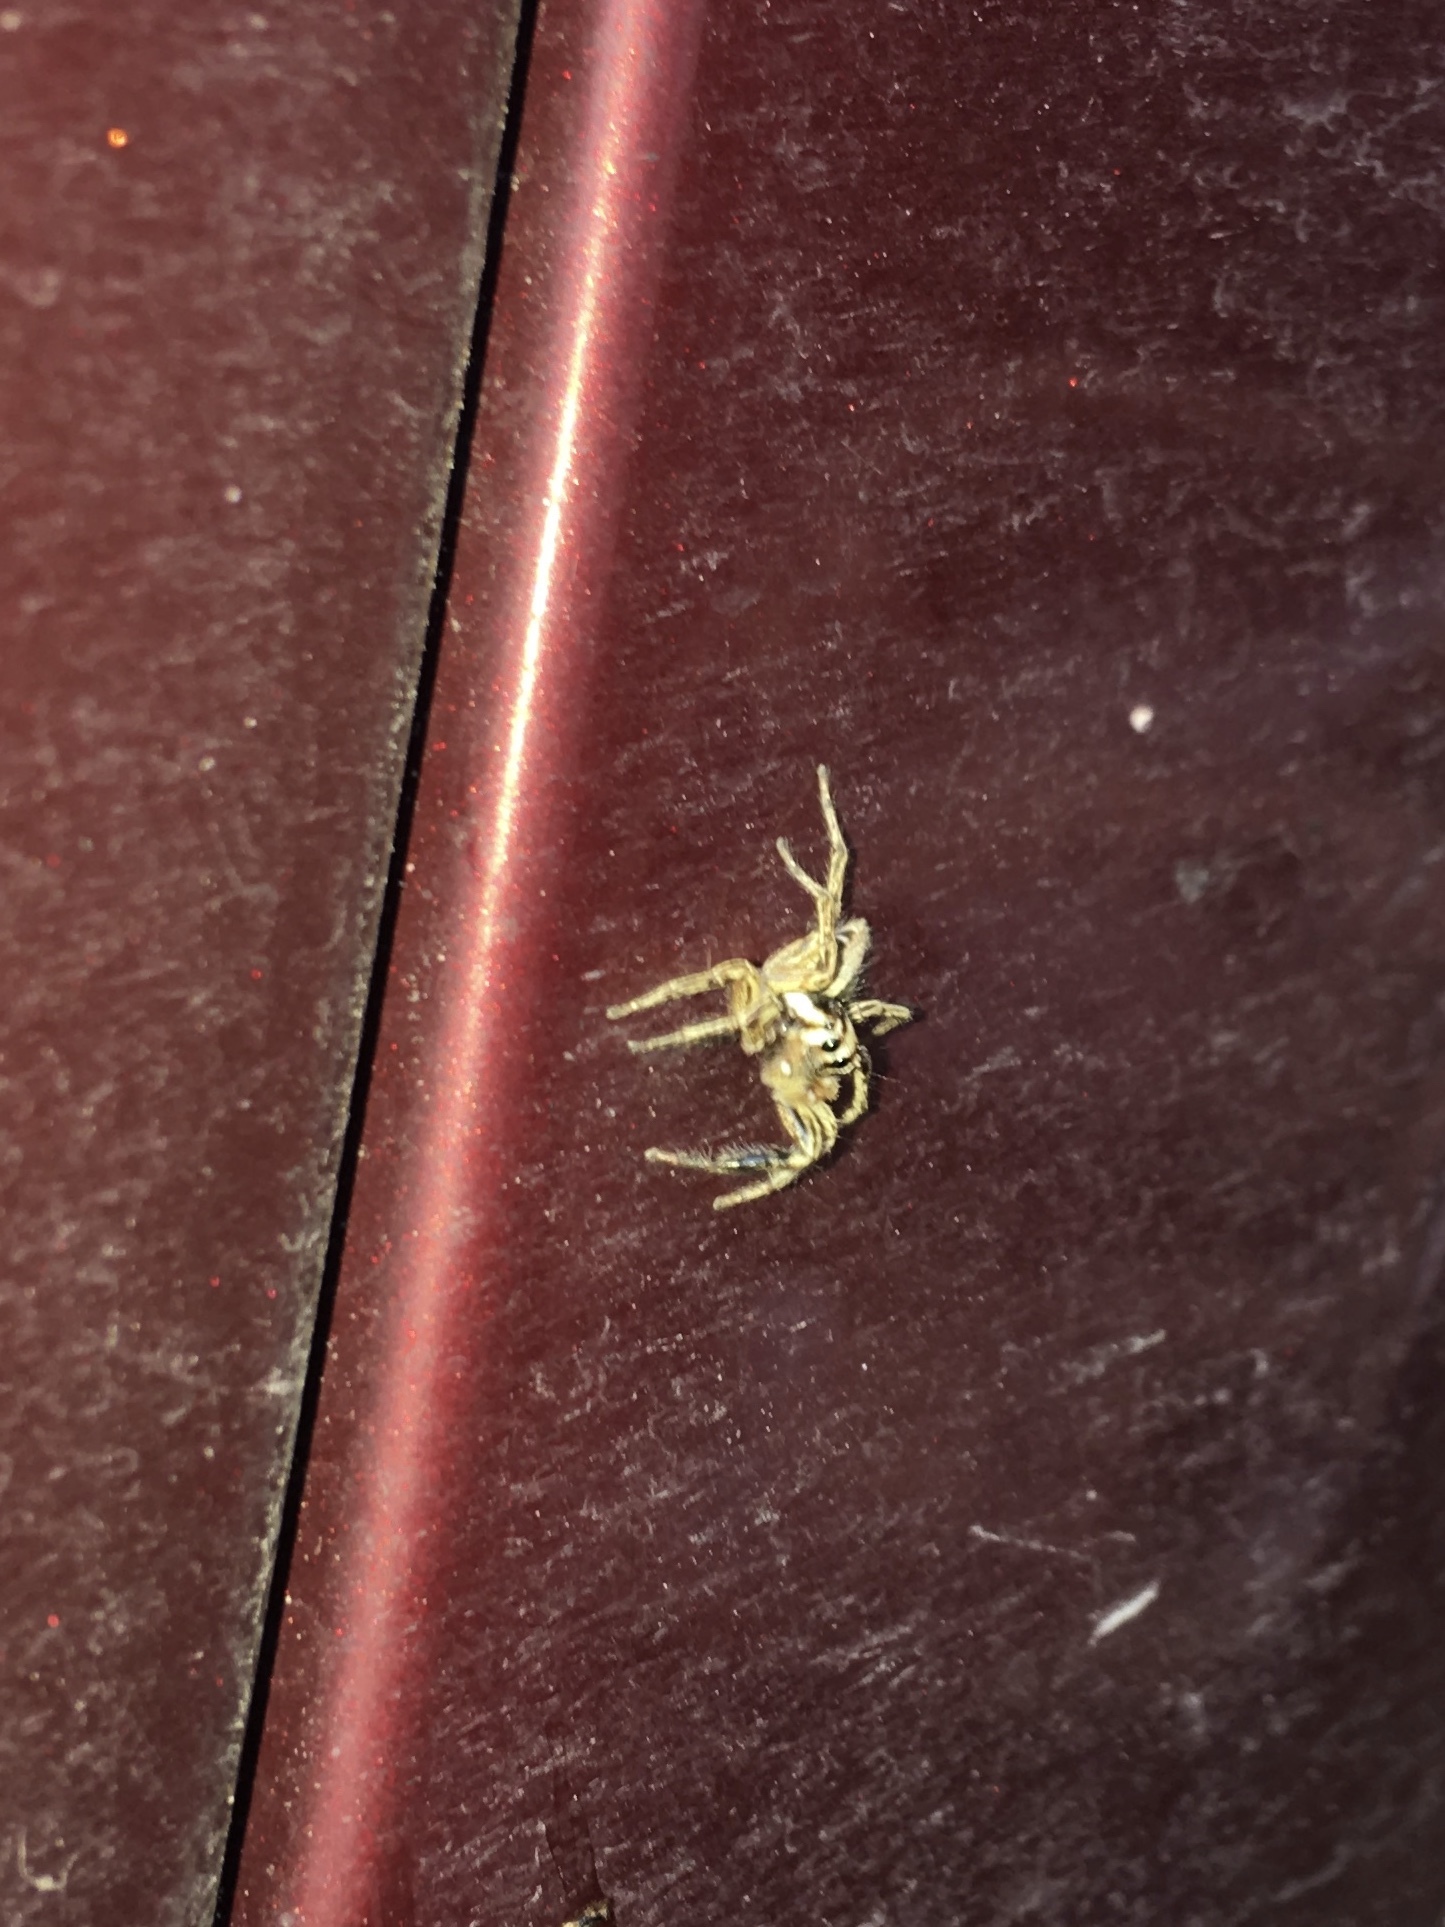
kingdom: Animalia
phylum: Arthropoda
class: Arachnida
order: Araneae
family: Salticidae
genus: Plexippus
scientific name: Plexippus paykulli
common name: Pantropical jumper
